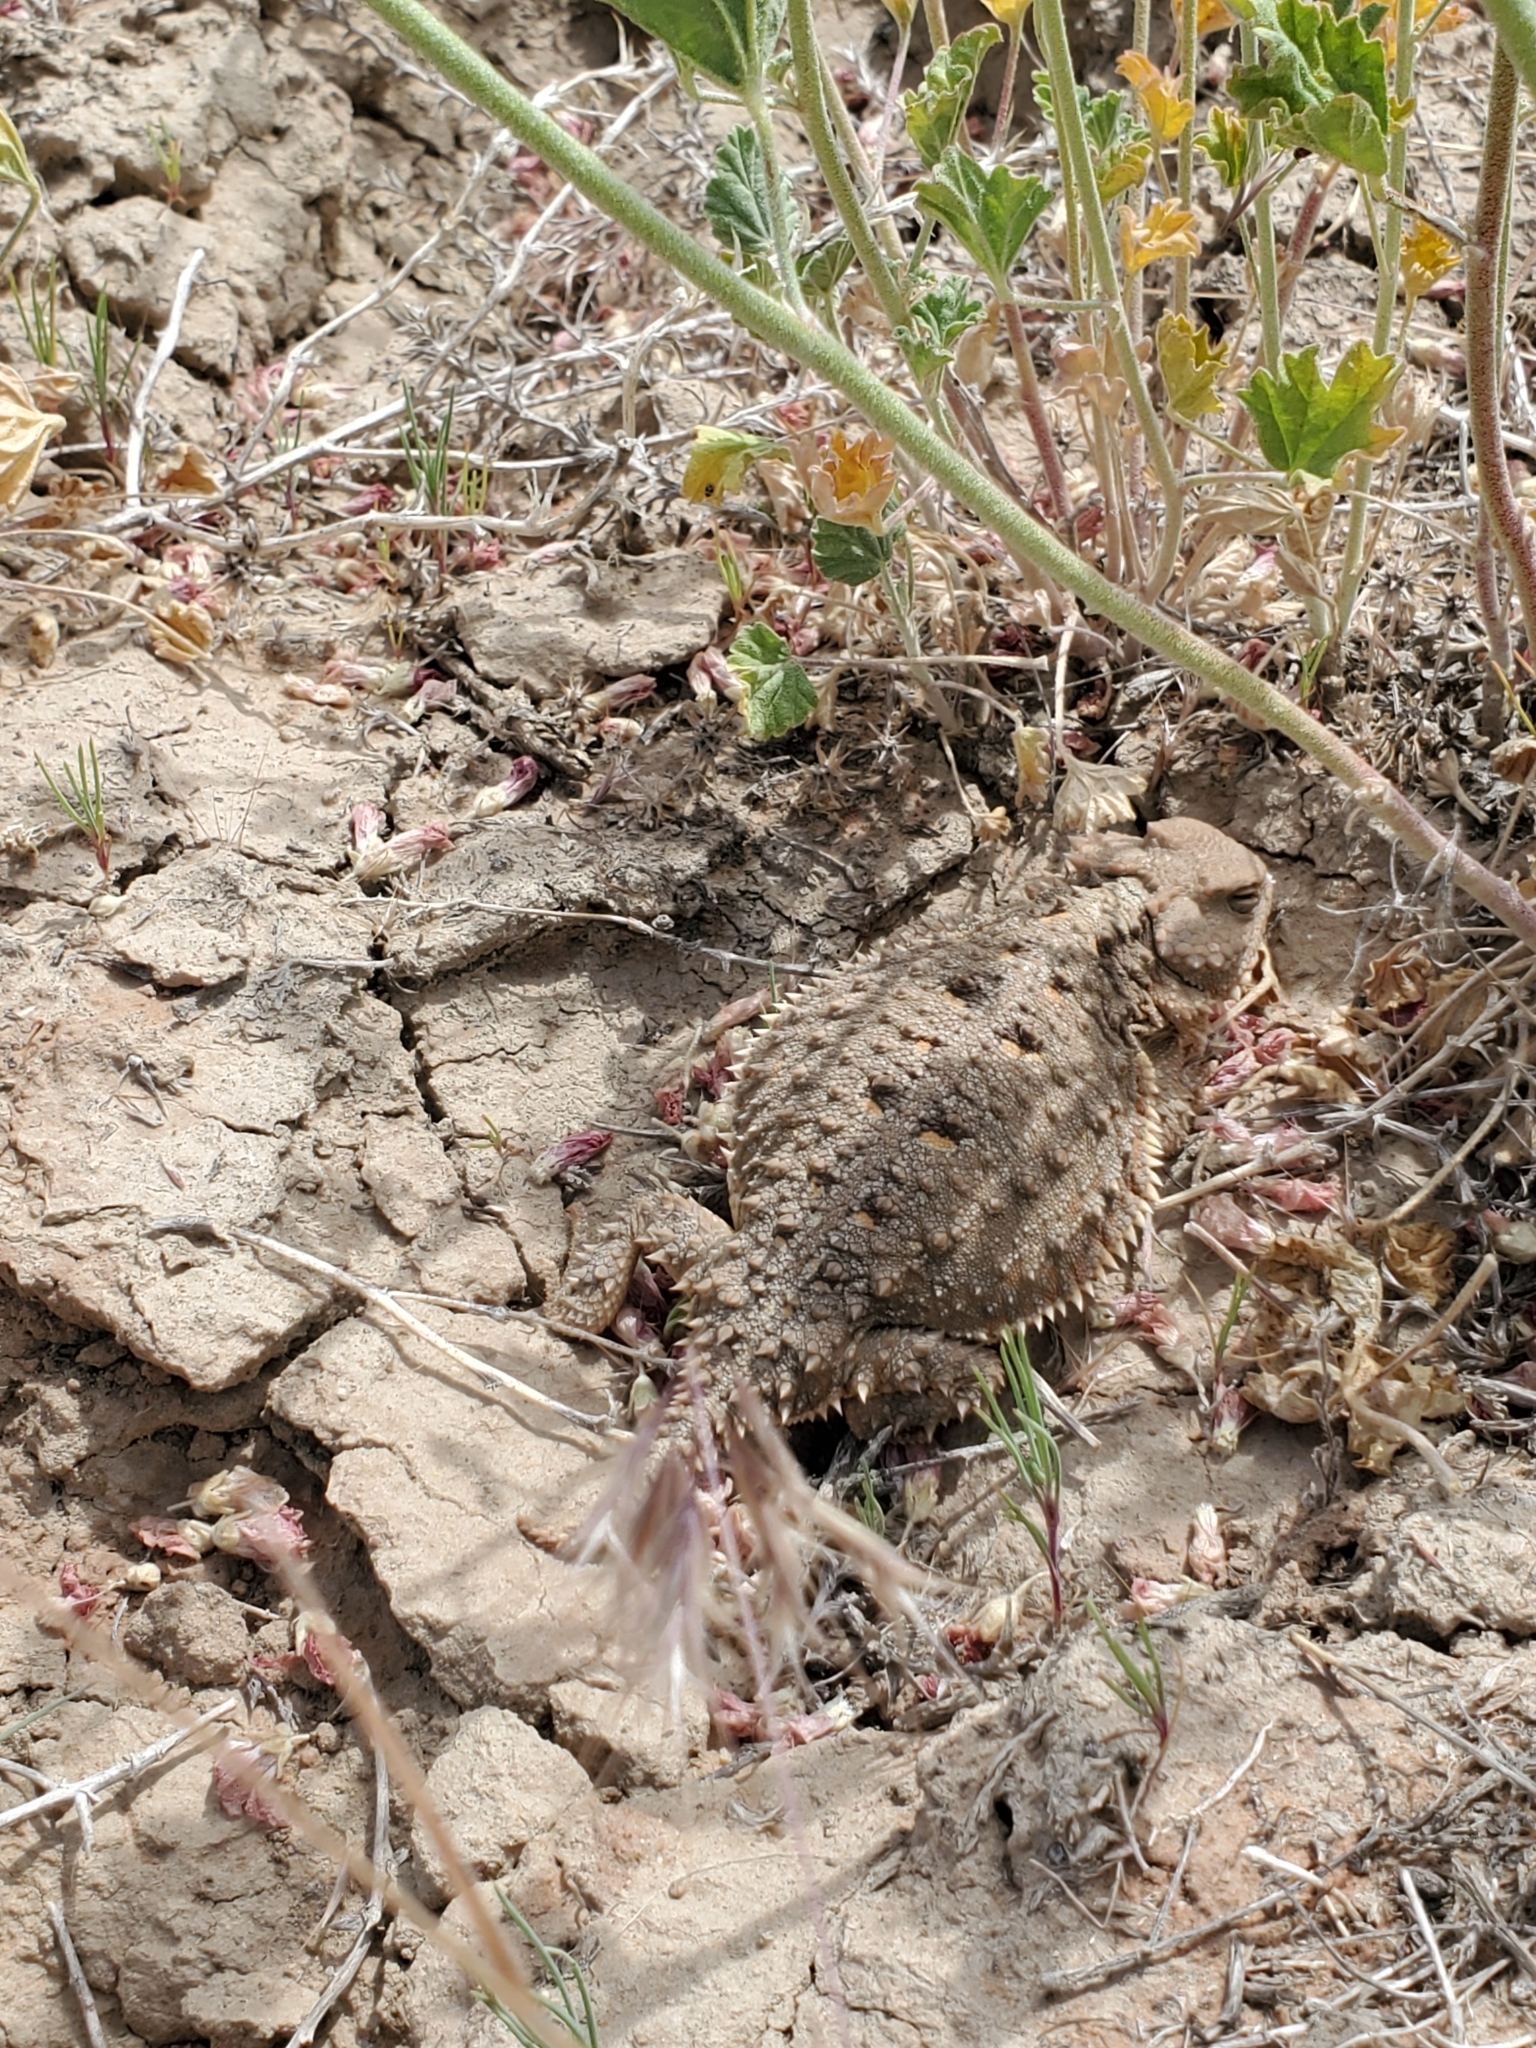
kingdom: Animalia
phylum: Chordata
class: Squamata
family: Phrynosomatidae
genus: Phrynosoma
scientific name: Phrynosoma hernandesi
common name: Greater short-horned lizard
